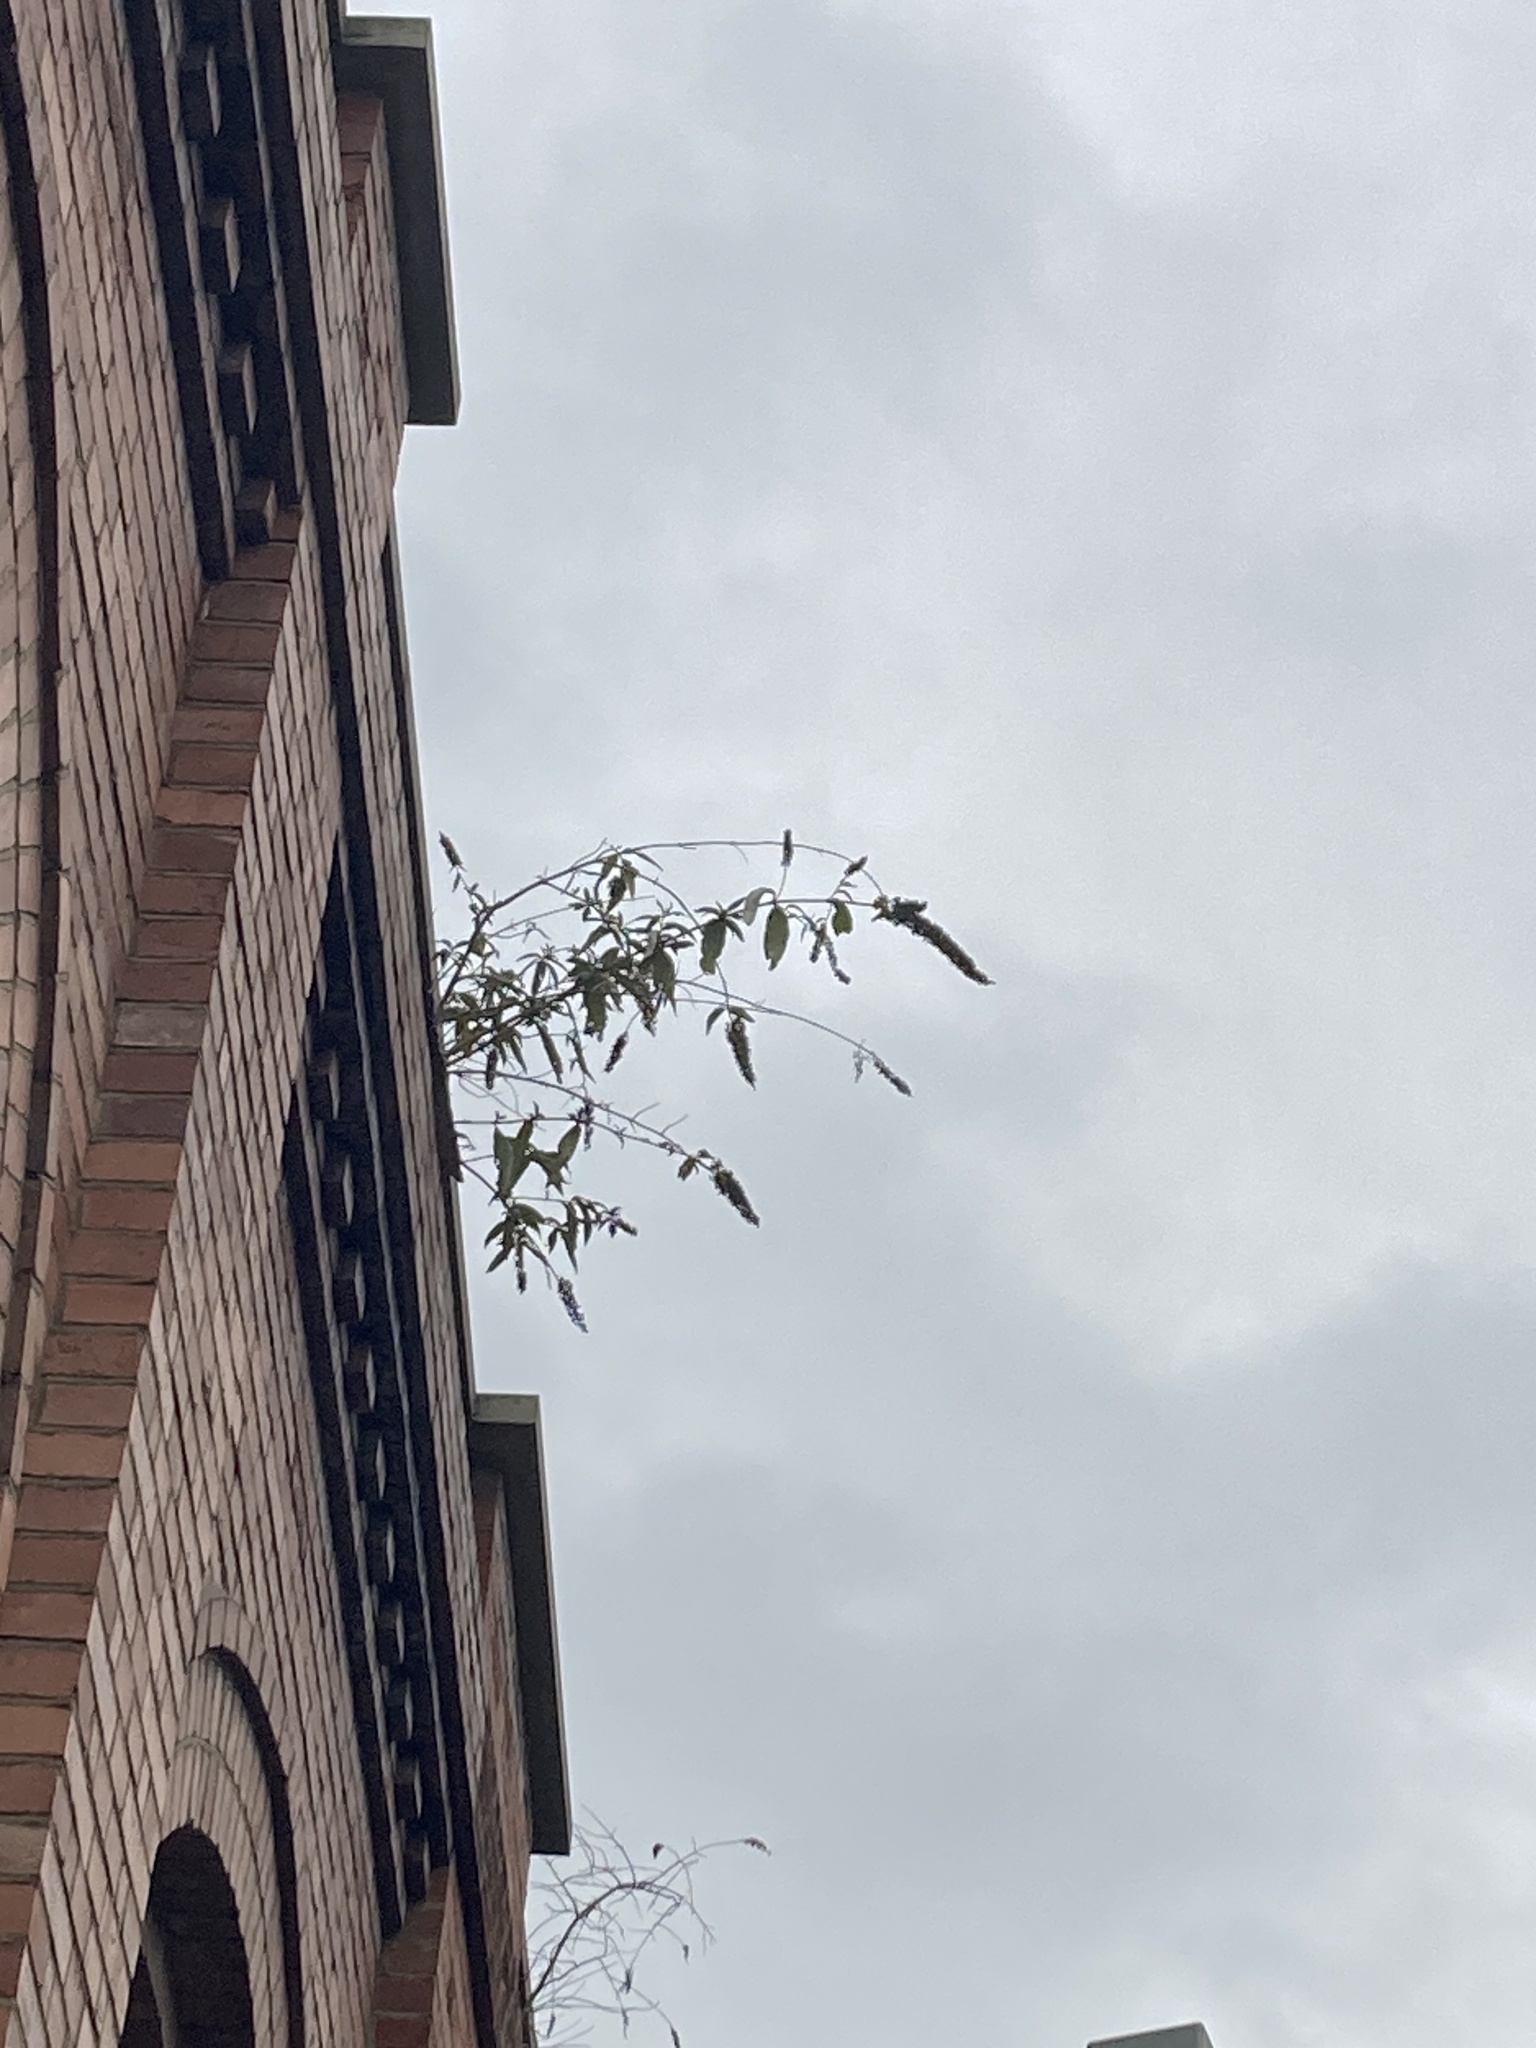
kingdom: Plantae
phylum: Tracheophyta
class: Magnoliopsida
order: Lamiales
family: Scrophulariaceae
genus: Buddleja
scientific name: Buddleja davidii
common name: Butterfly-bush
